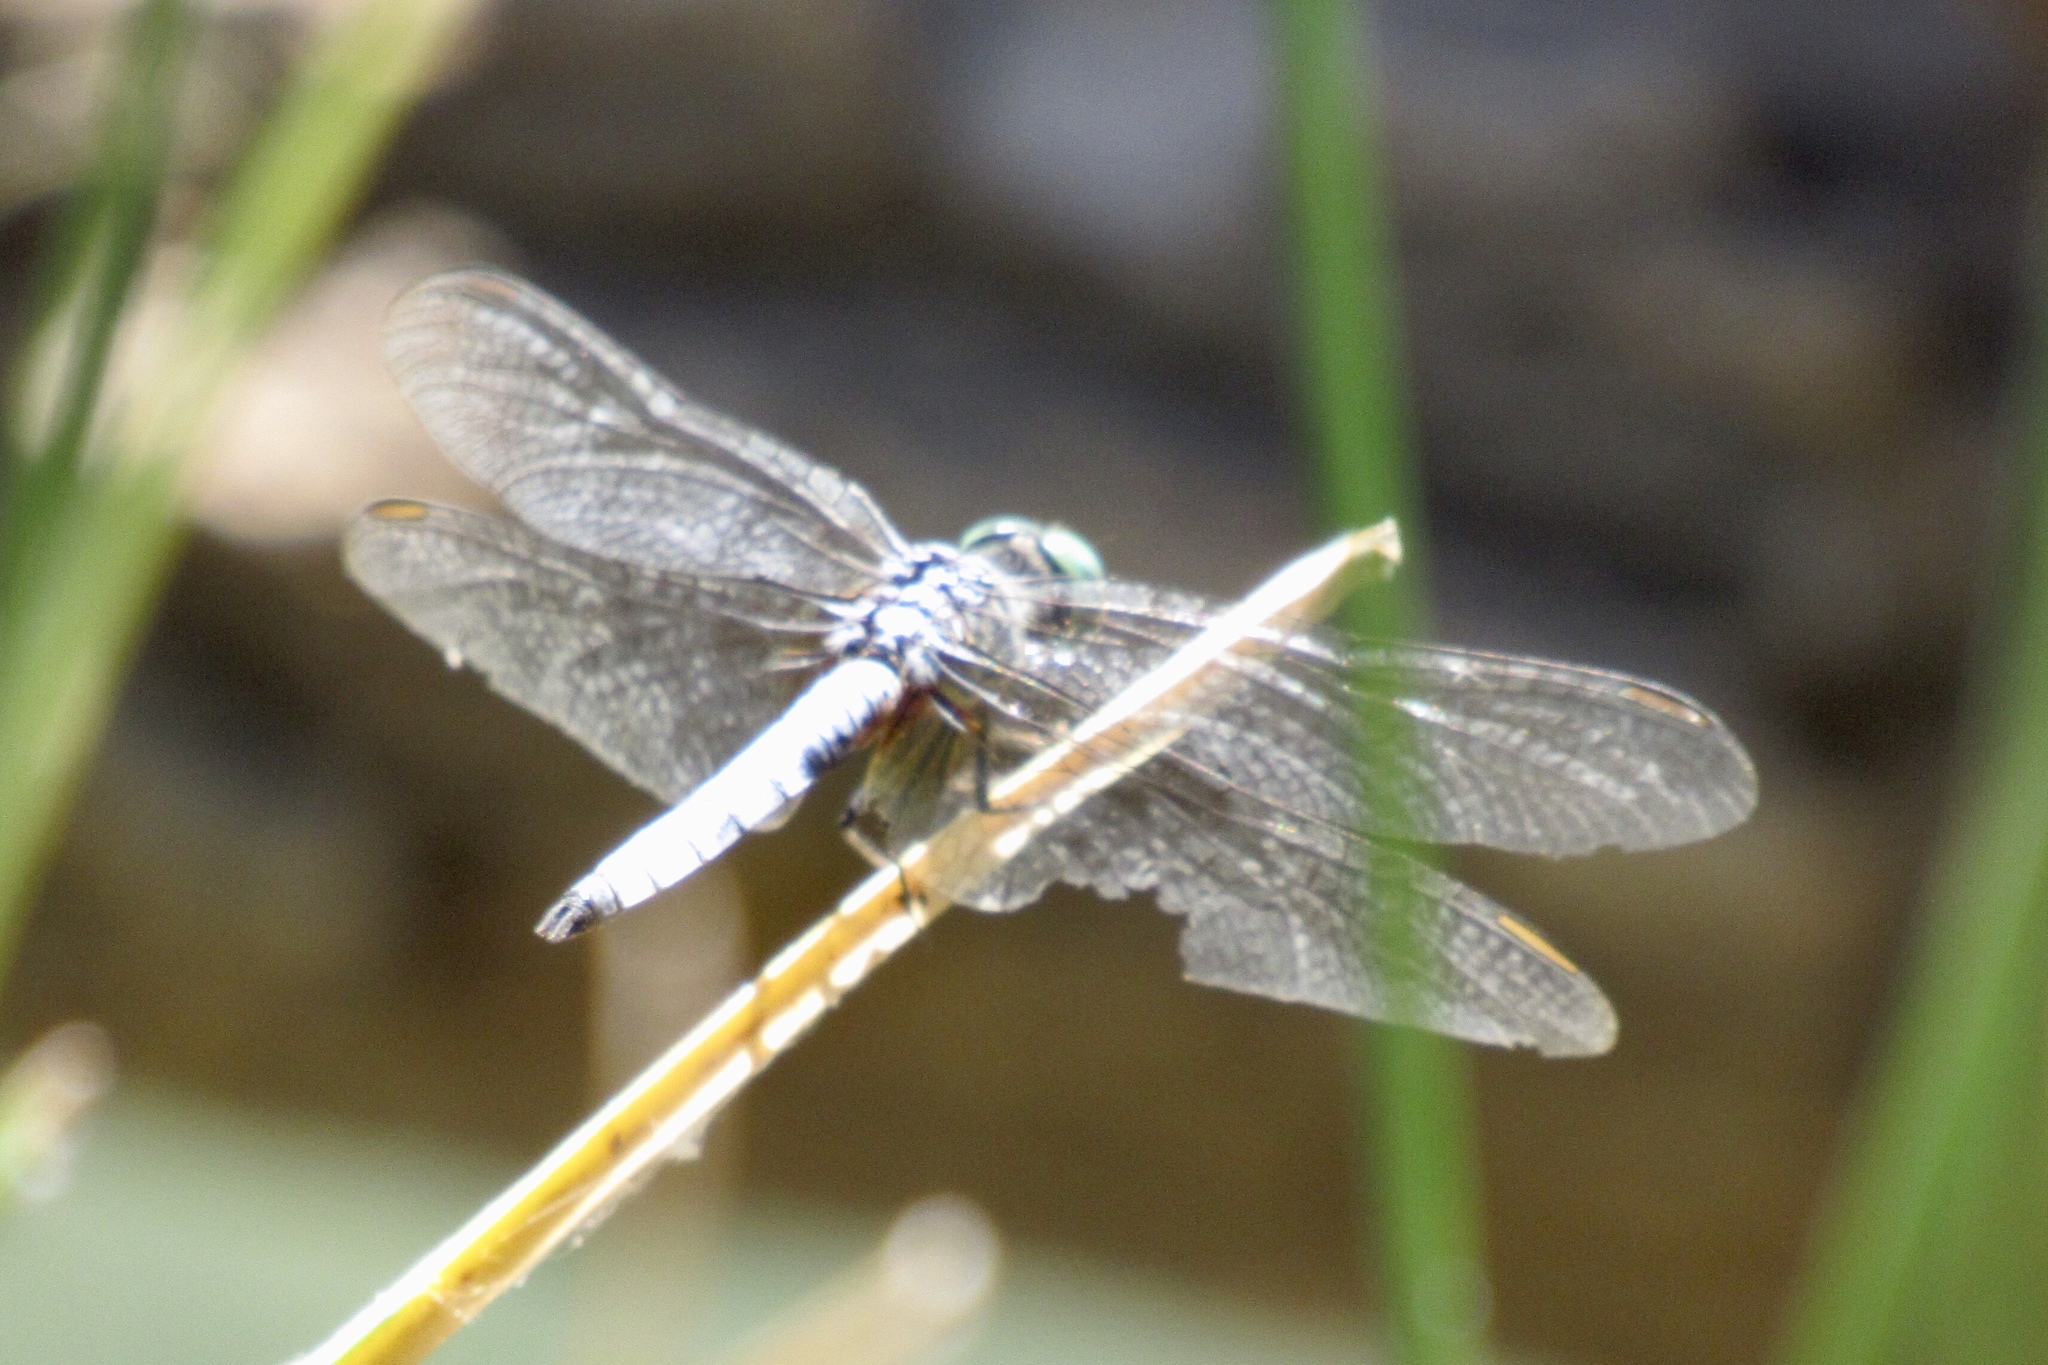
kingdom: Animalia
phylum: Arthropoda
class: Insecta
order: Odonata
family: Libellulidae
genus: Pachydiplax
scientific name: Pachydiplax longipennis
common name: Blue dasher
